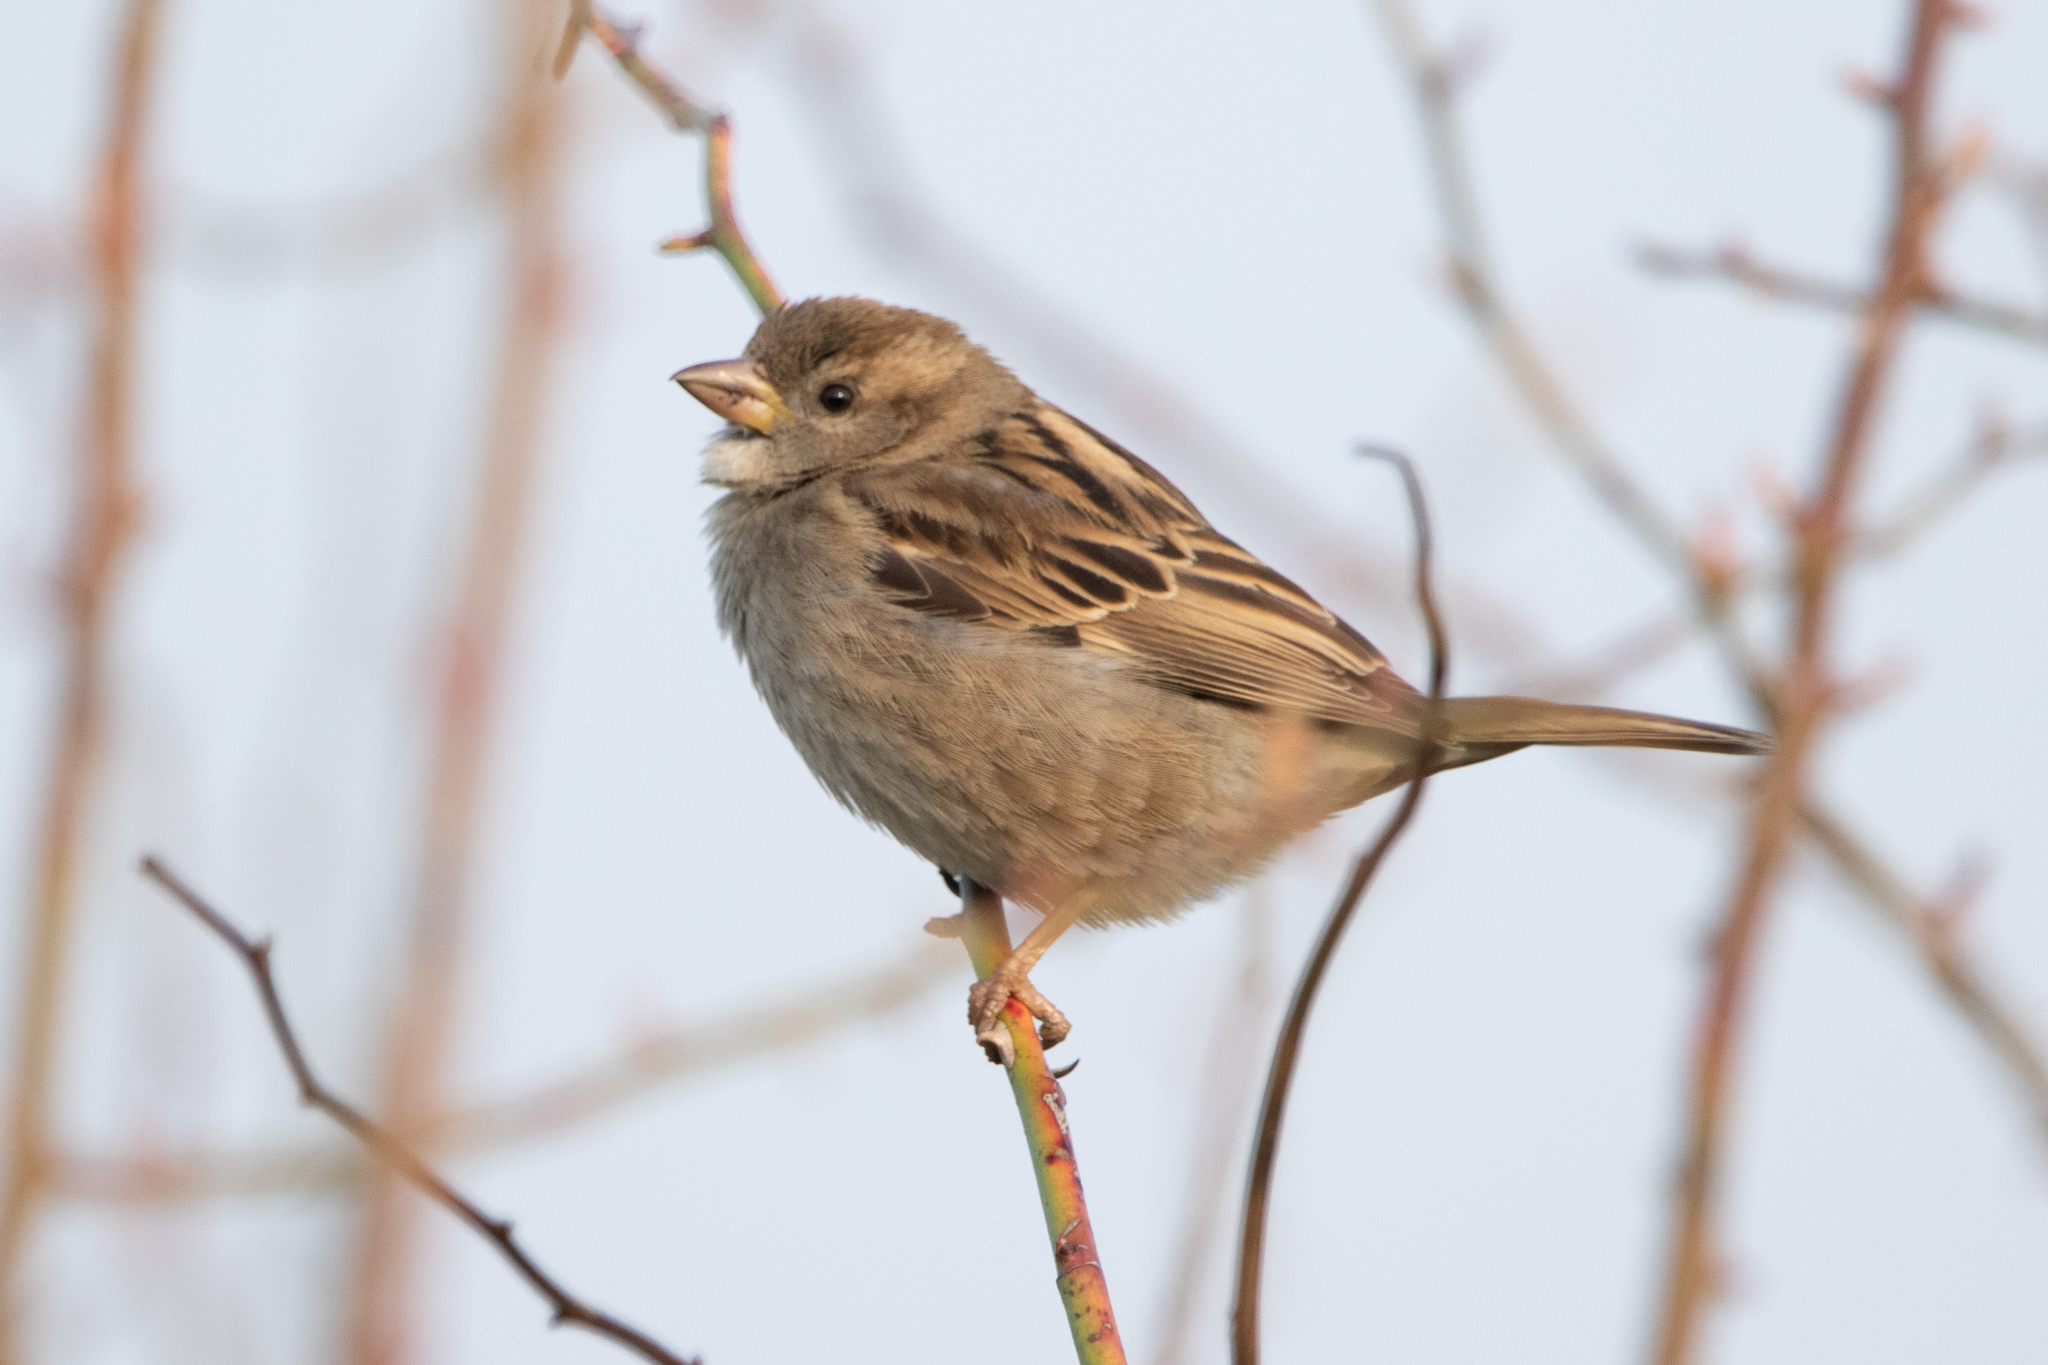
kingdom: Animalia
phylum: Chordata
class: Aves
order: Passeriformes
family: Passeridae
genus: Passer
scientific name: Passer domesticus
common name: House sparrow
